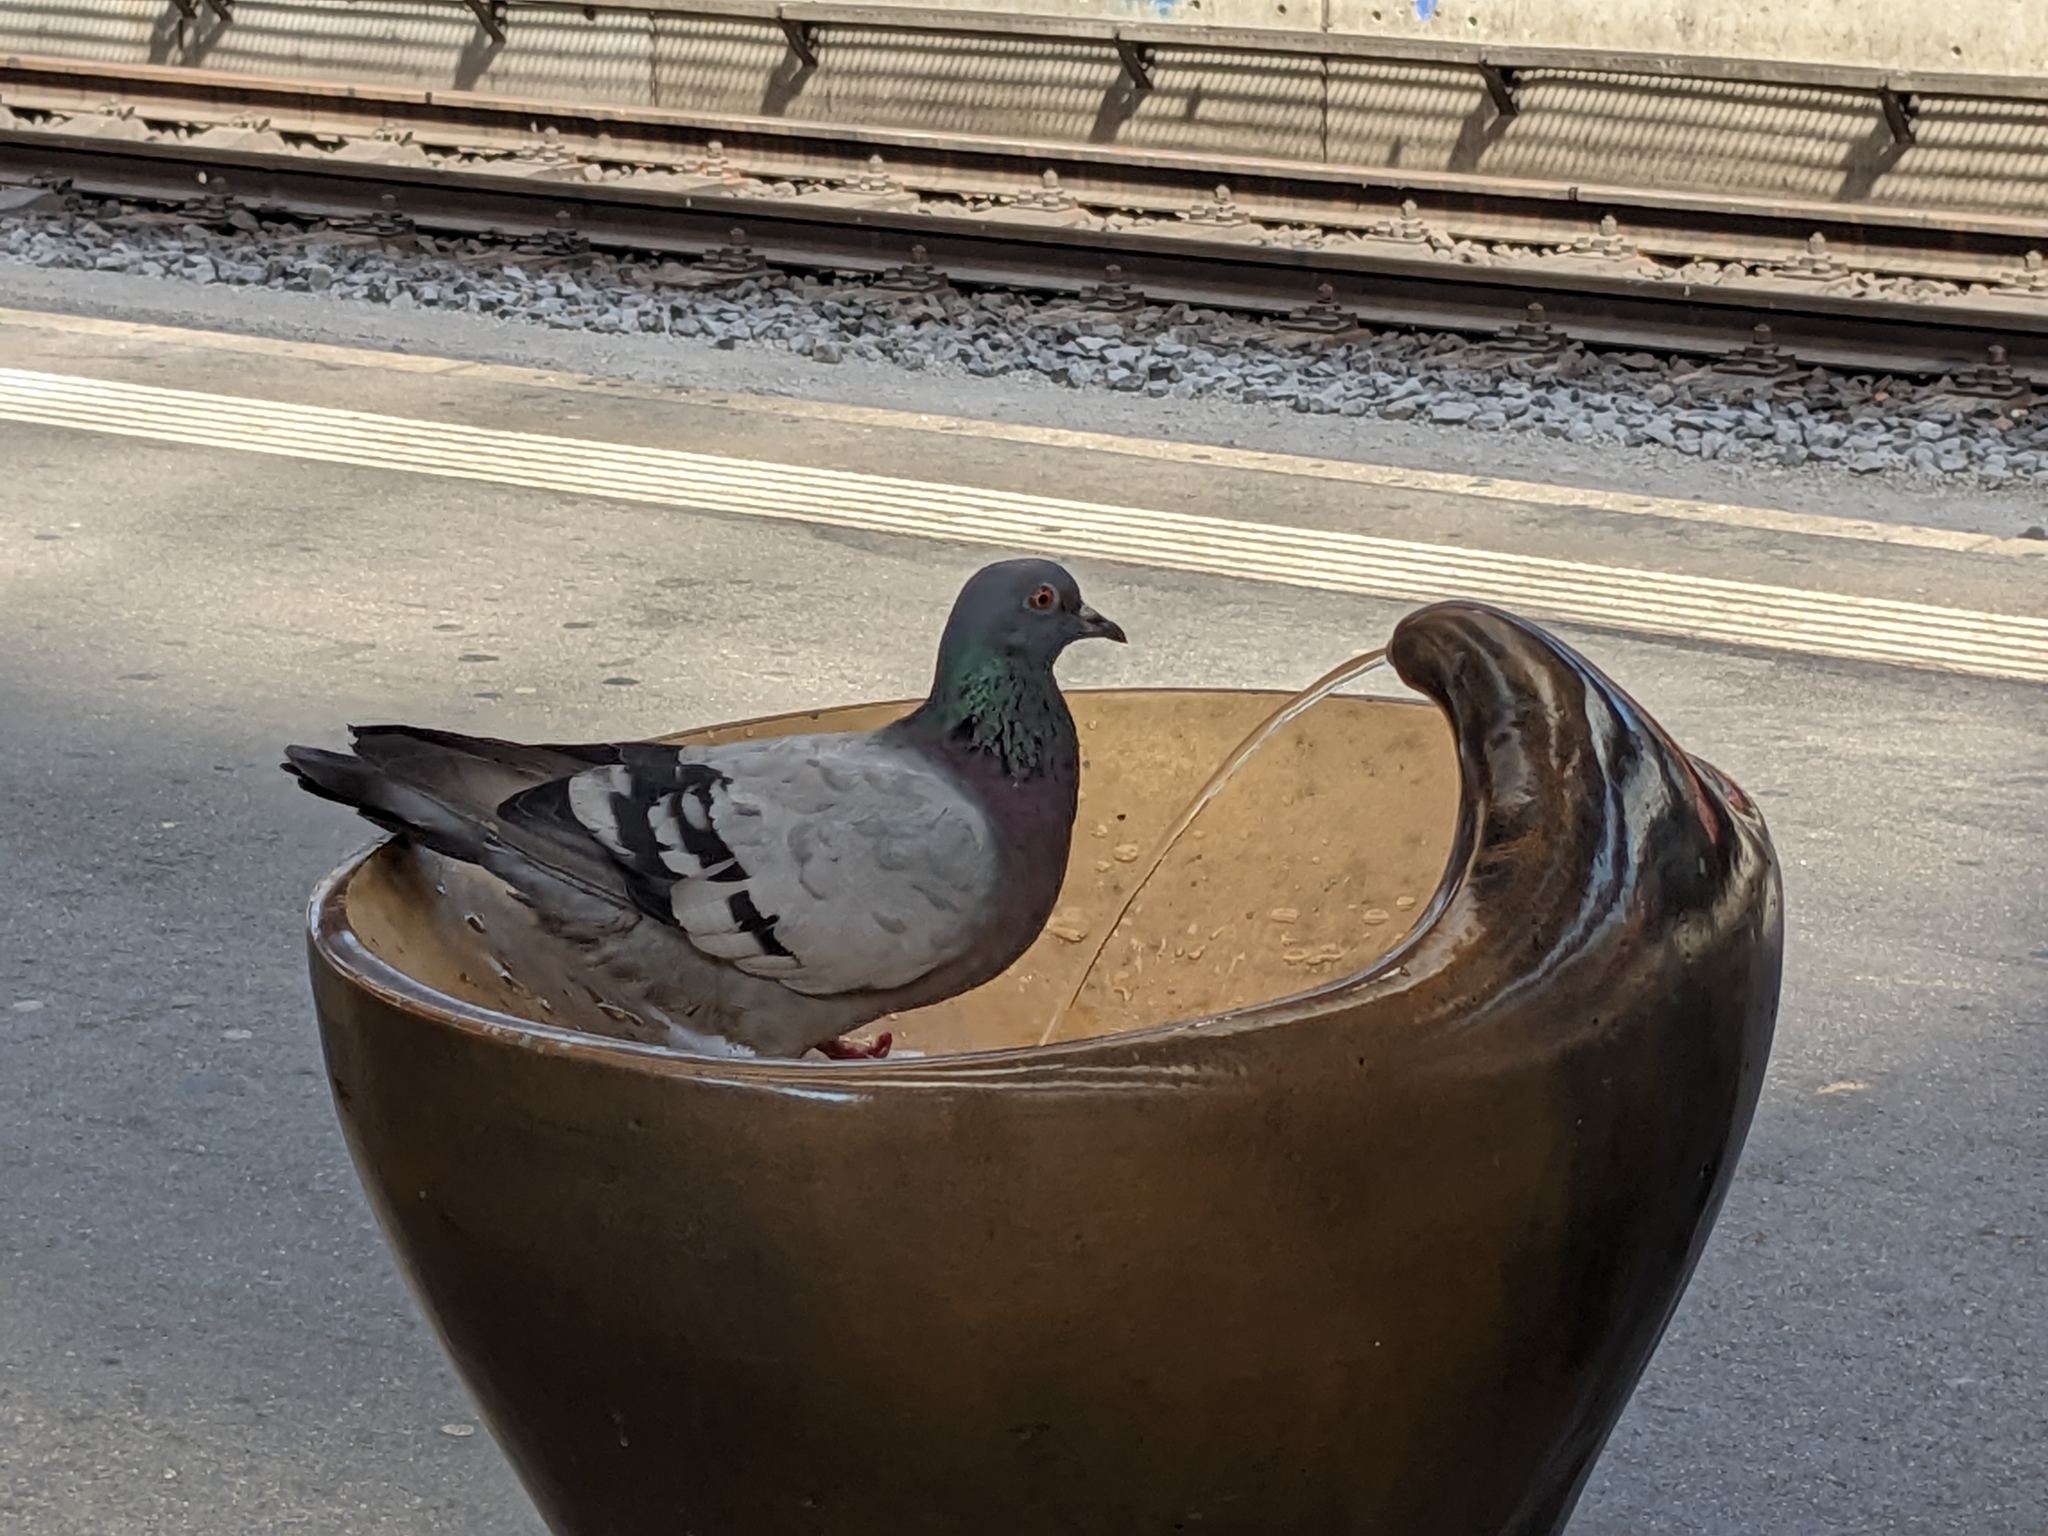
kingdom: Animalia
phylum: Chordata
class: Aves
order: Columbiformes
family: Columbidae
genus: Columba
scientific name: Columba livia
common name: Rock pigeon
